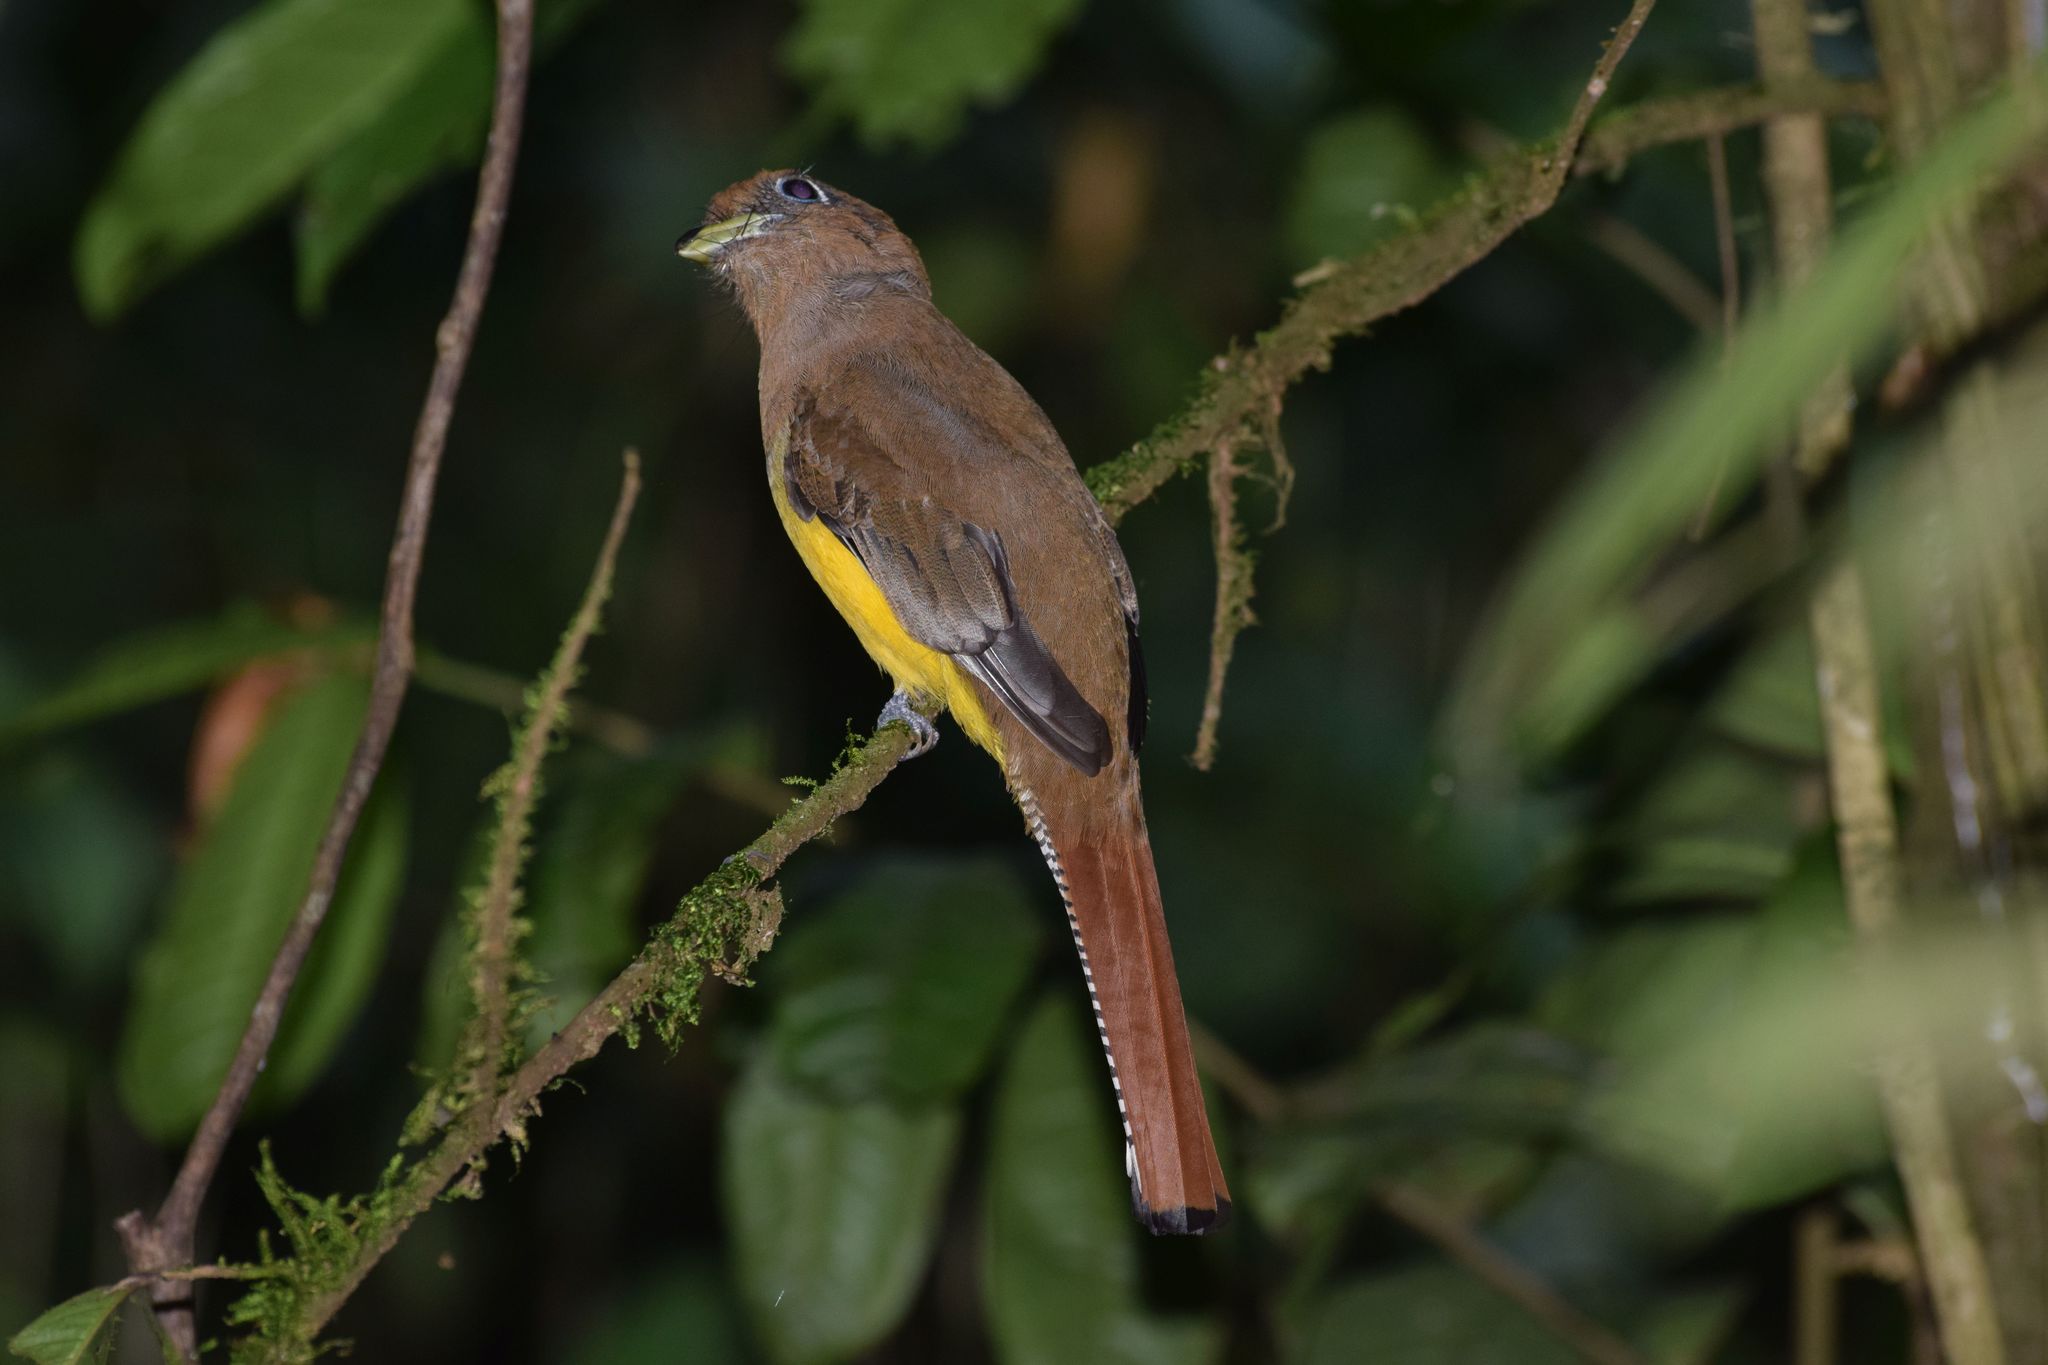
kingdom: Animalia
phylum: Chordata
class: Aves
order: Trogoniformes
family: Trogonidae
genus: Trogon
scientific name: Trogon rufus
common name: Black-throated trogon
